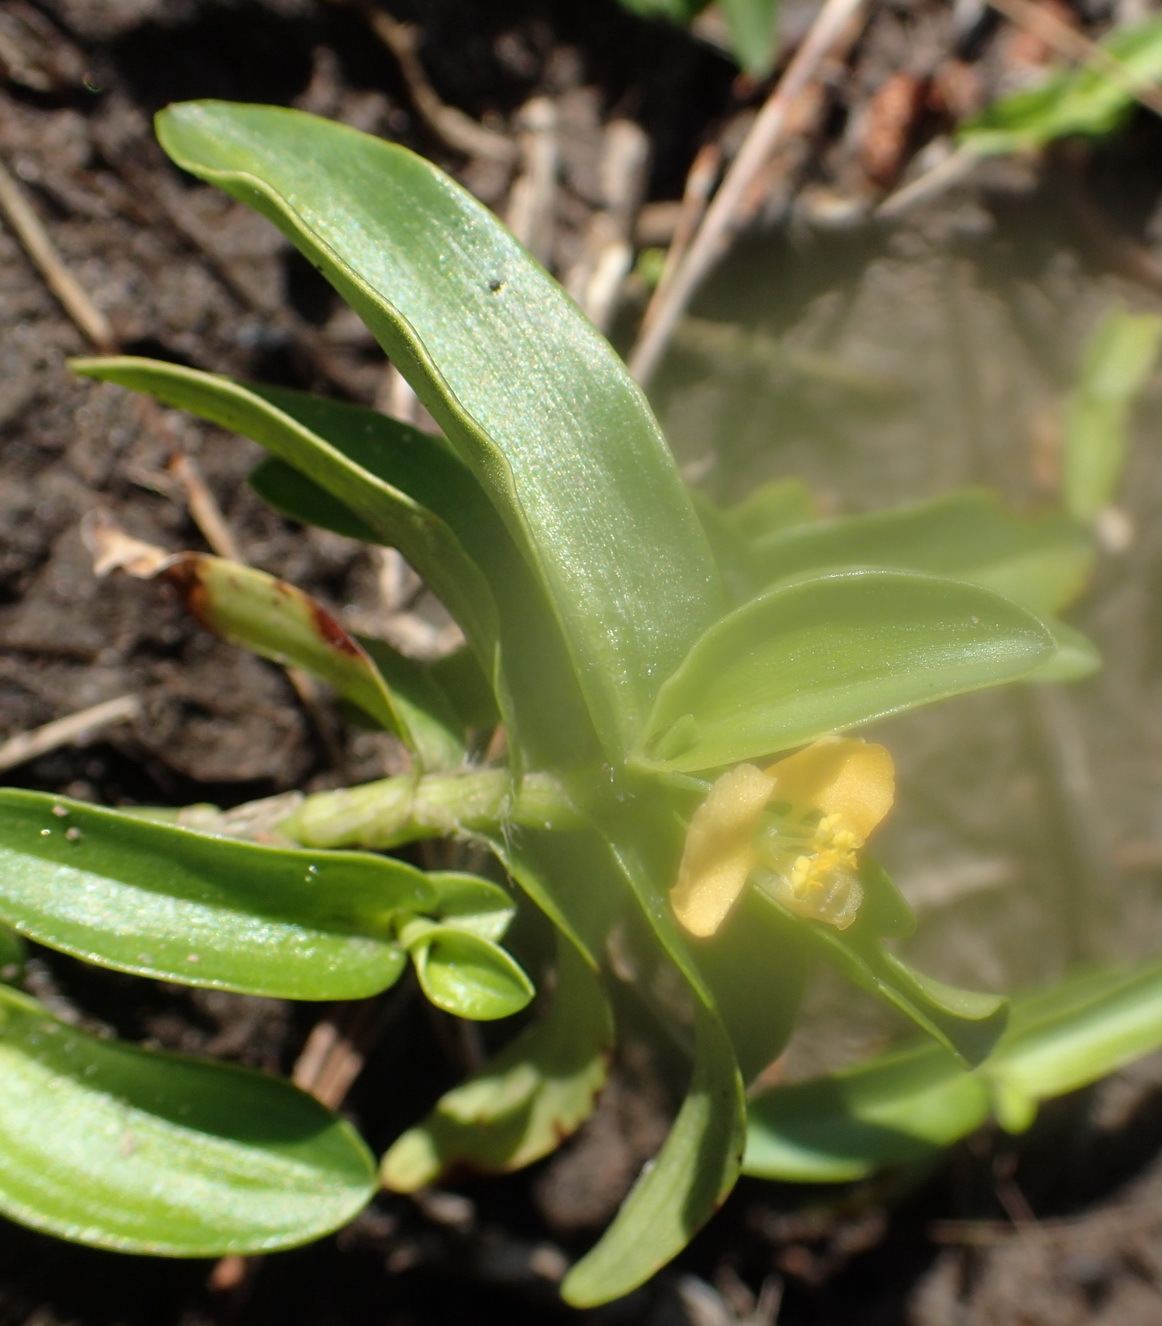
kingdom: Plantae
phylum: Tracheophyta
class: Liliopsida
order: Commelinales
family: Commelinaceae
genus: Commelina
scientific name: Commelina africana
